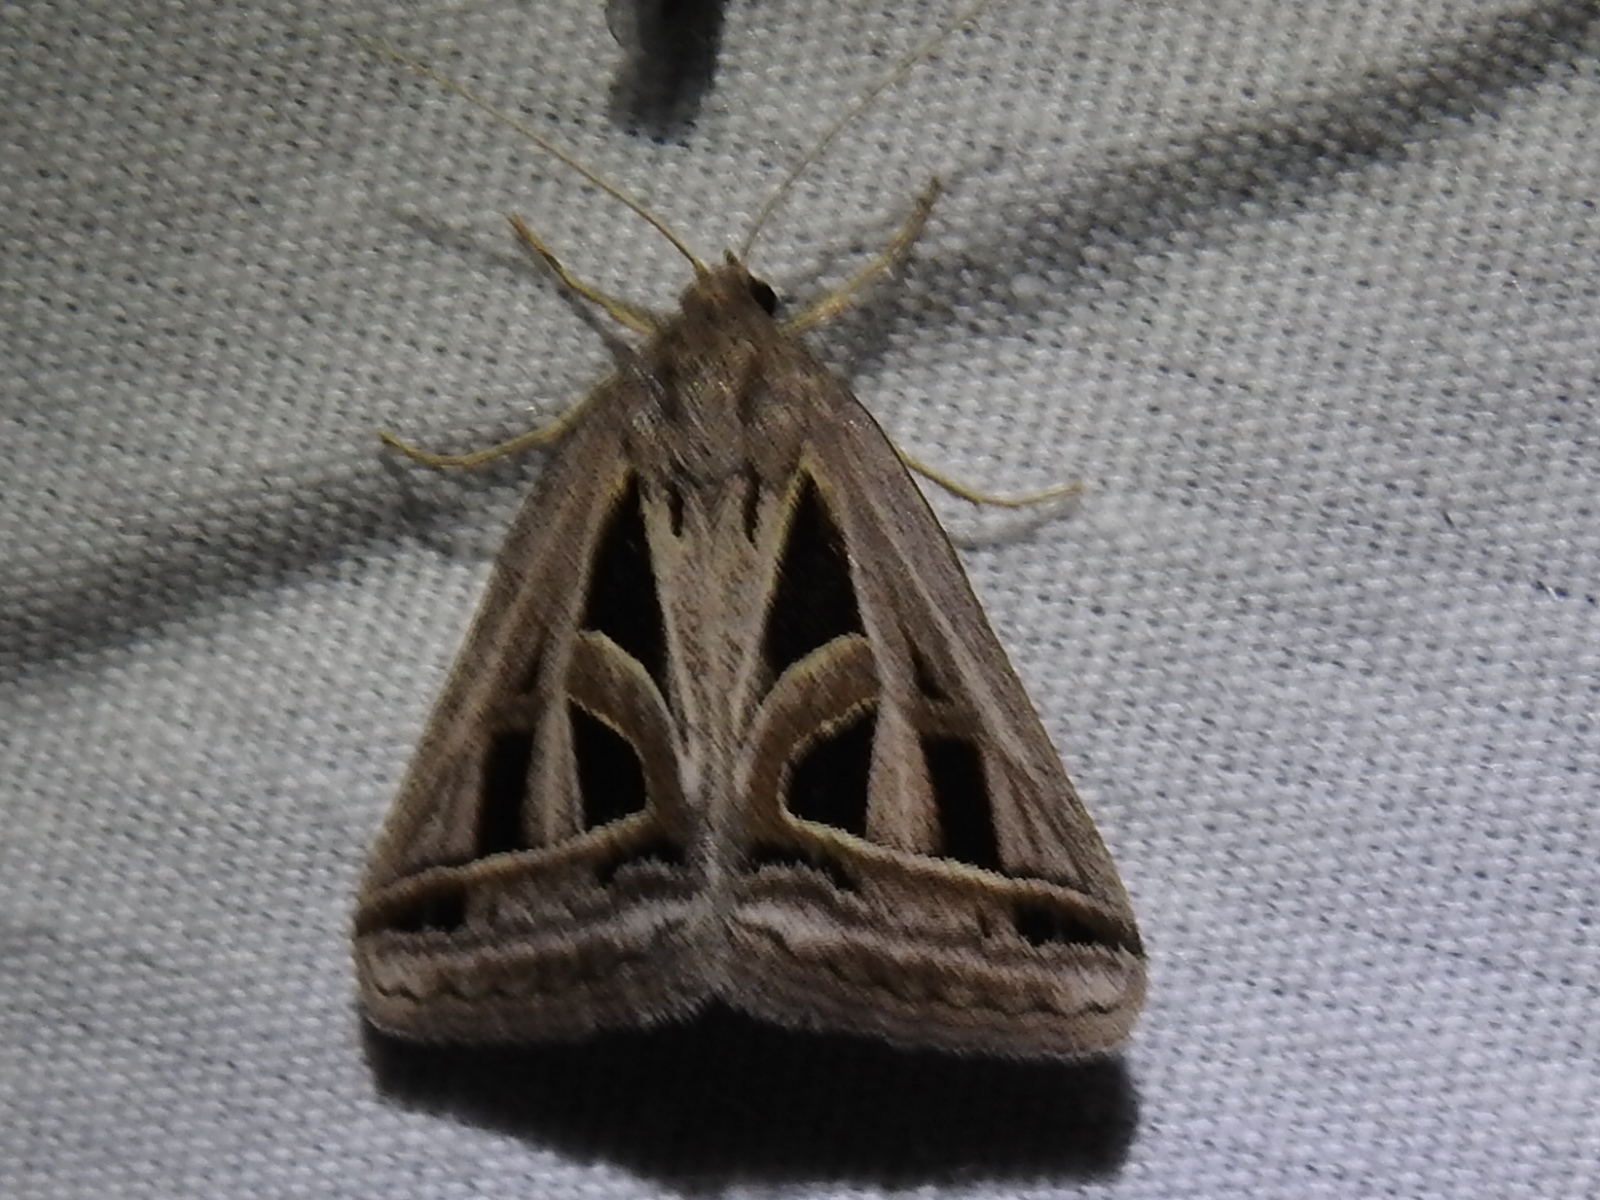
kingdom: Animalia
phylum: Arthropoda
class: Insecta
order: Lepidoptera
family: Erebidae
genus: Callistege
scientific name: Callistege diagonalis
